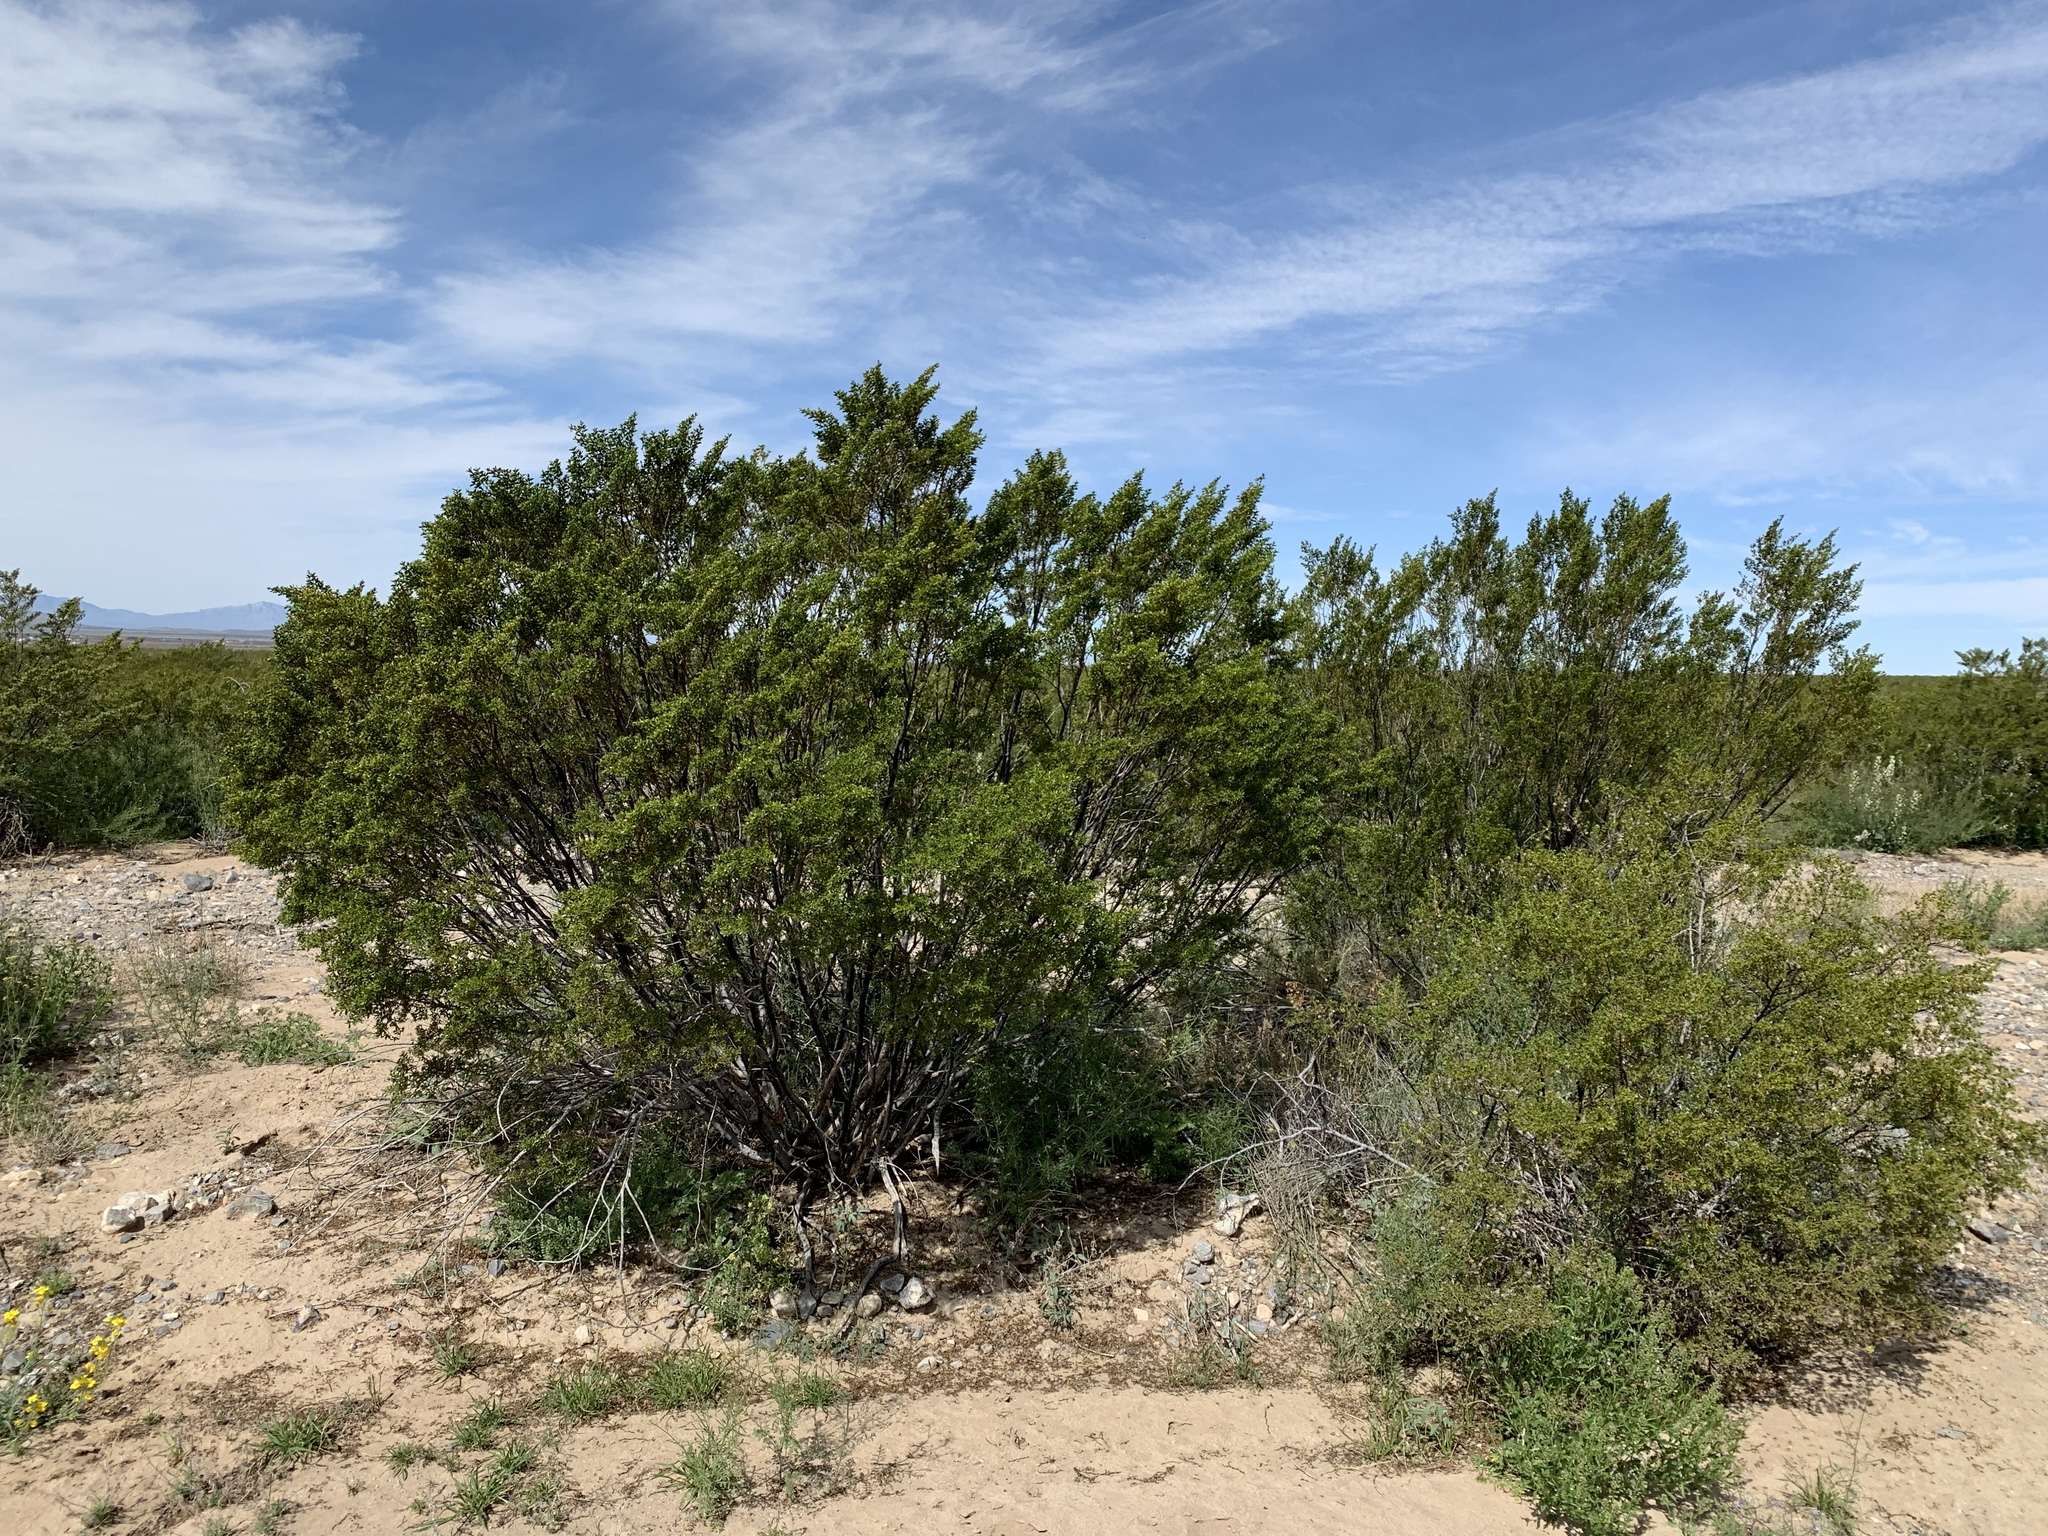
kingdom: Plantae
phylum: Tracheophyta
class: Magnoliopsida
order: Zygophyllales
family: Zygophyllaceae
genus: Larrea
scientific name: Larrea tridentata
